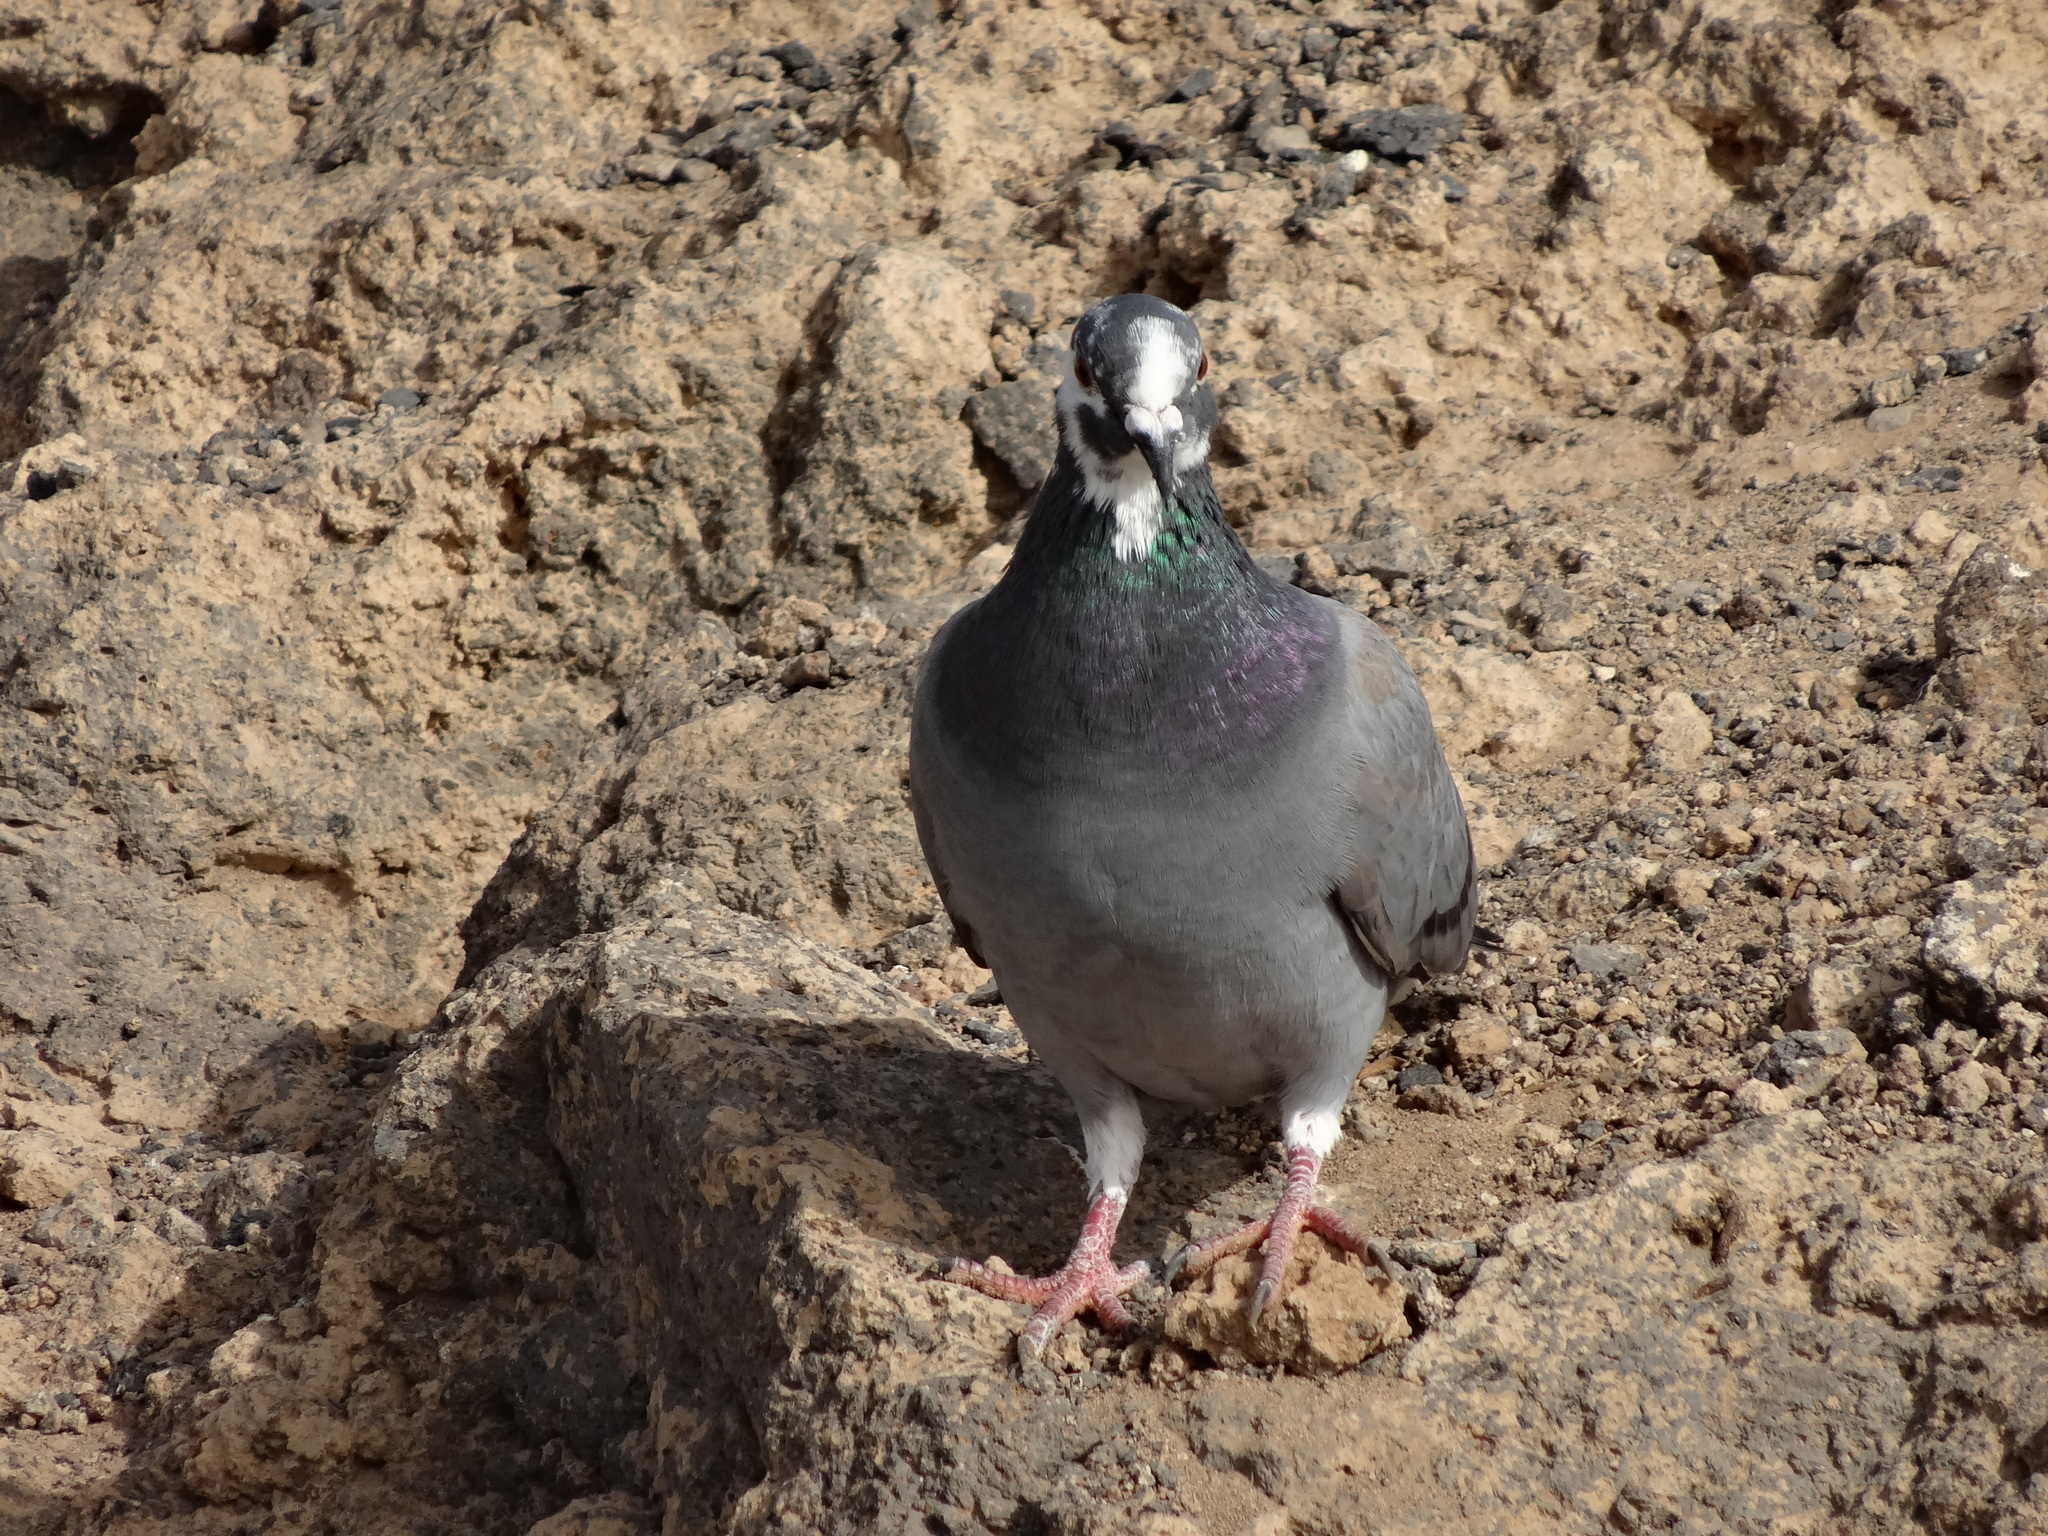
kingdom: Animalia
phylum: Chordata
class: Aves
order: Columbiformes
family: Columbidae
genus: Columba
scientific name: Columba livia
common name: Rock pigeon
